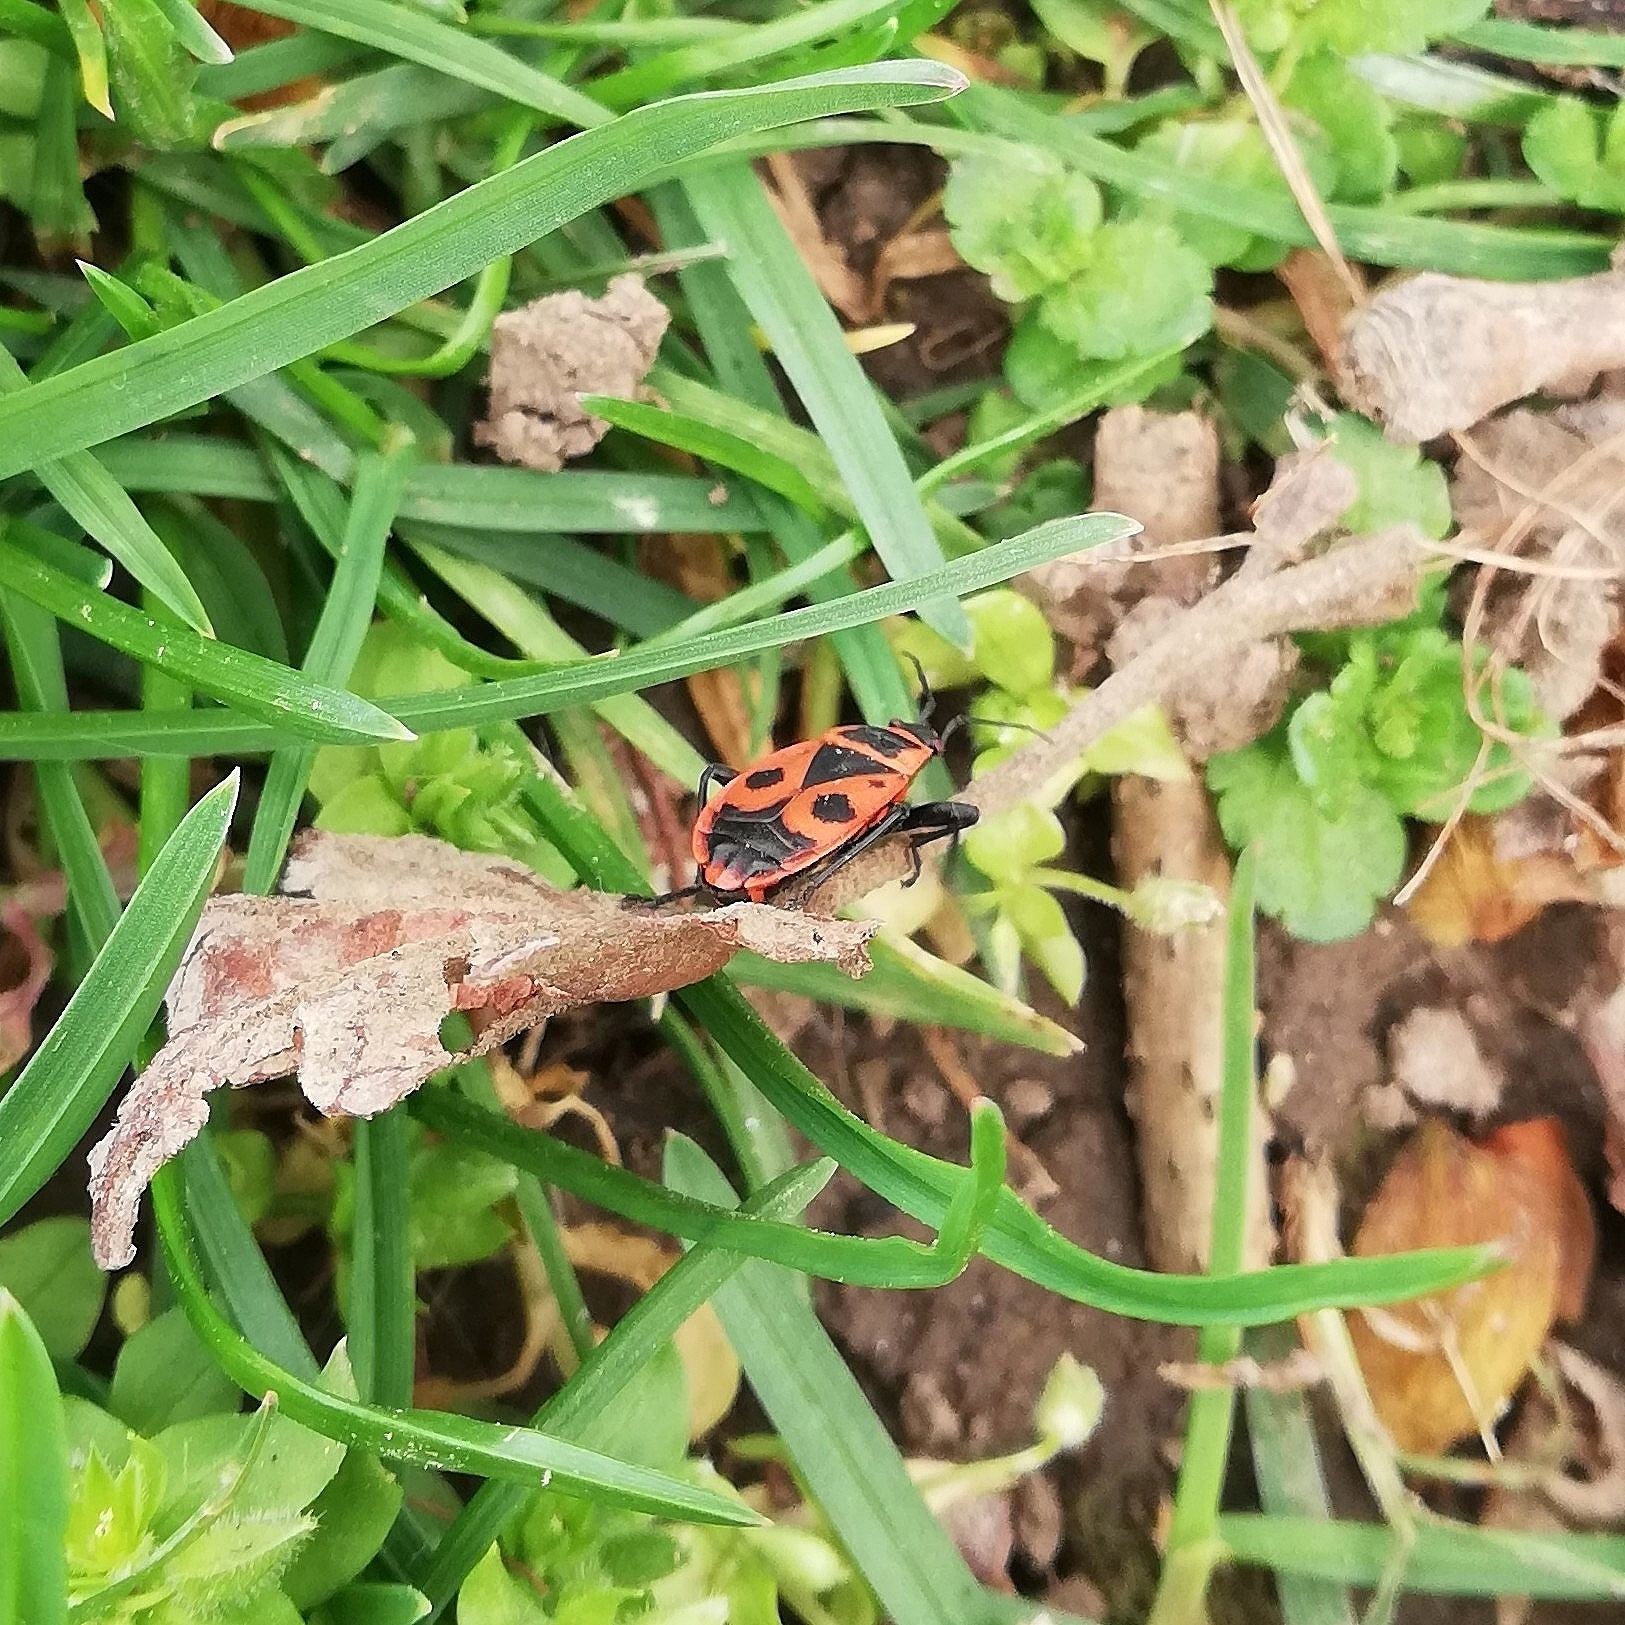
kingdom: Animalia
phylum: Arthropoda
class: Insecta
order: Hemiptera
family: Pyrrhocoridae
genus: Pyrrhocoris
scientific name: Pyrrhocoris apterus
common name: Firebug
